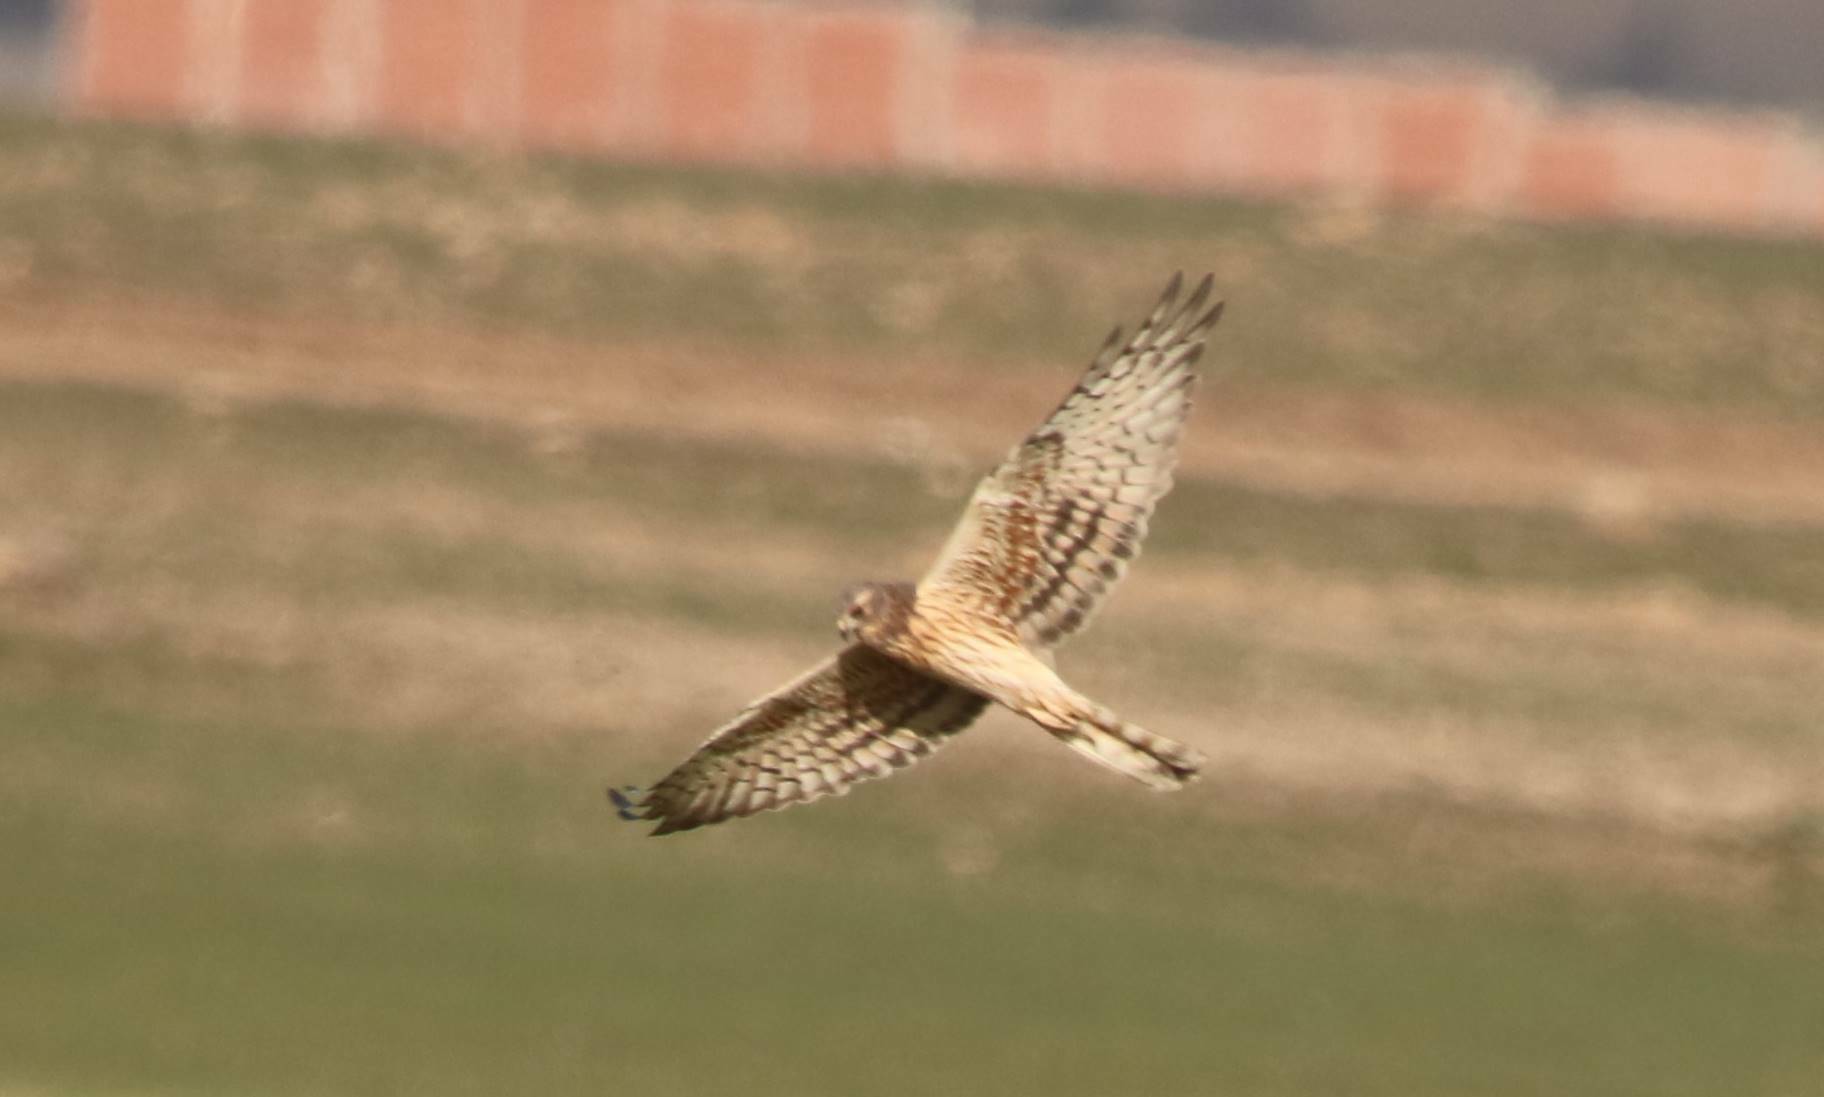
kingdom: Animalia
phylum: Chordata
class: Aves
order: Accipitriformes
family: Accipitridae
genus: Circus
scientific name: Circus pygargus
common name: Montagu's harrier
